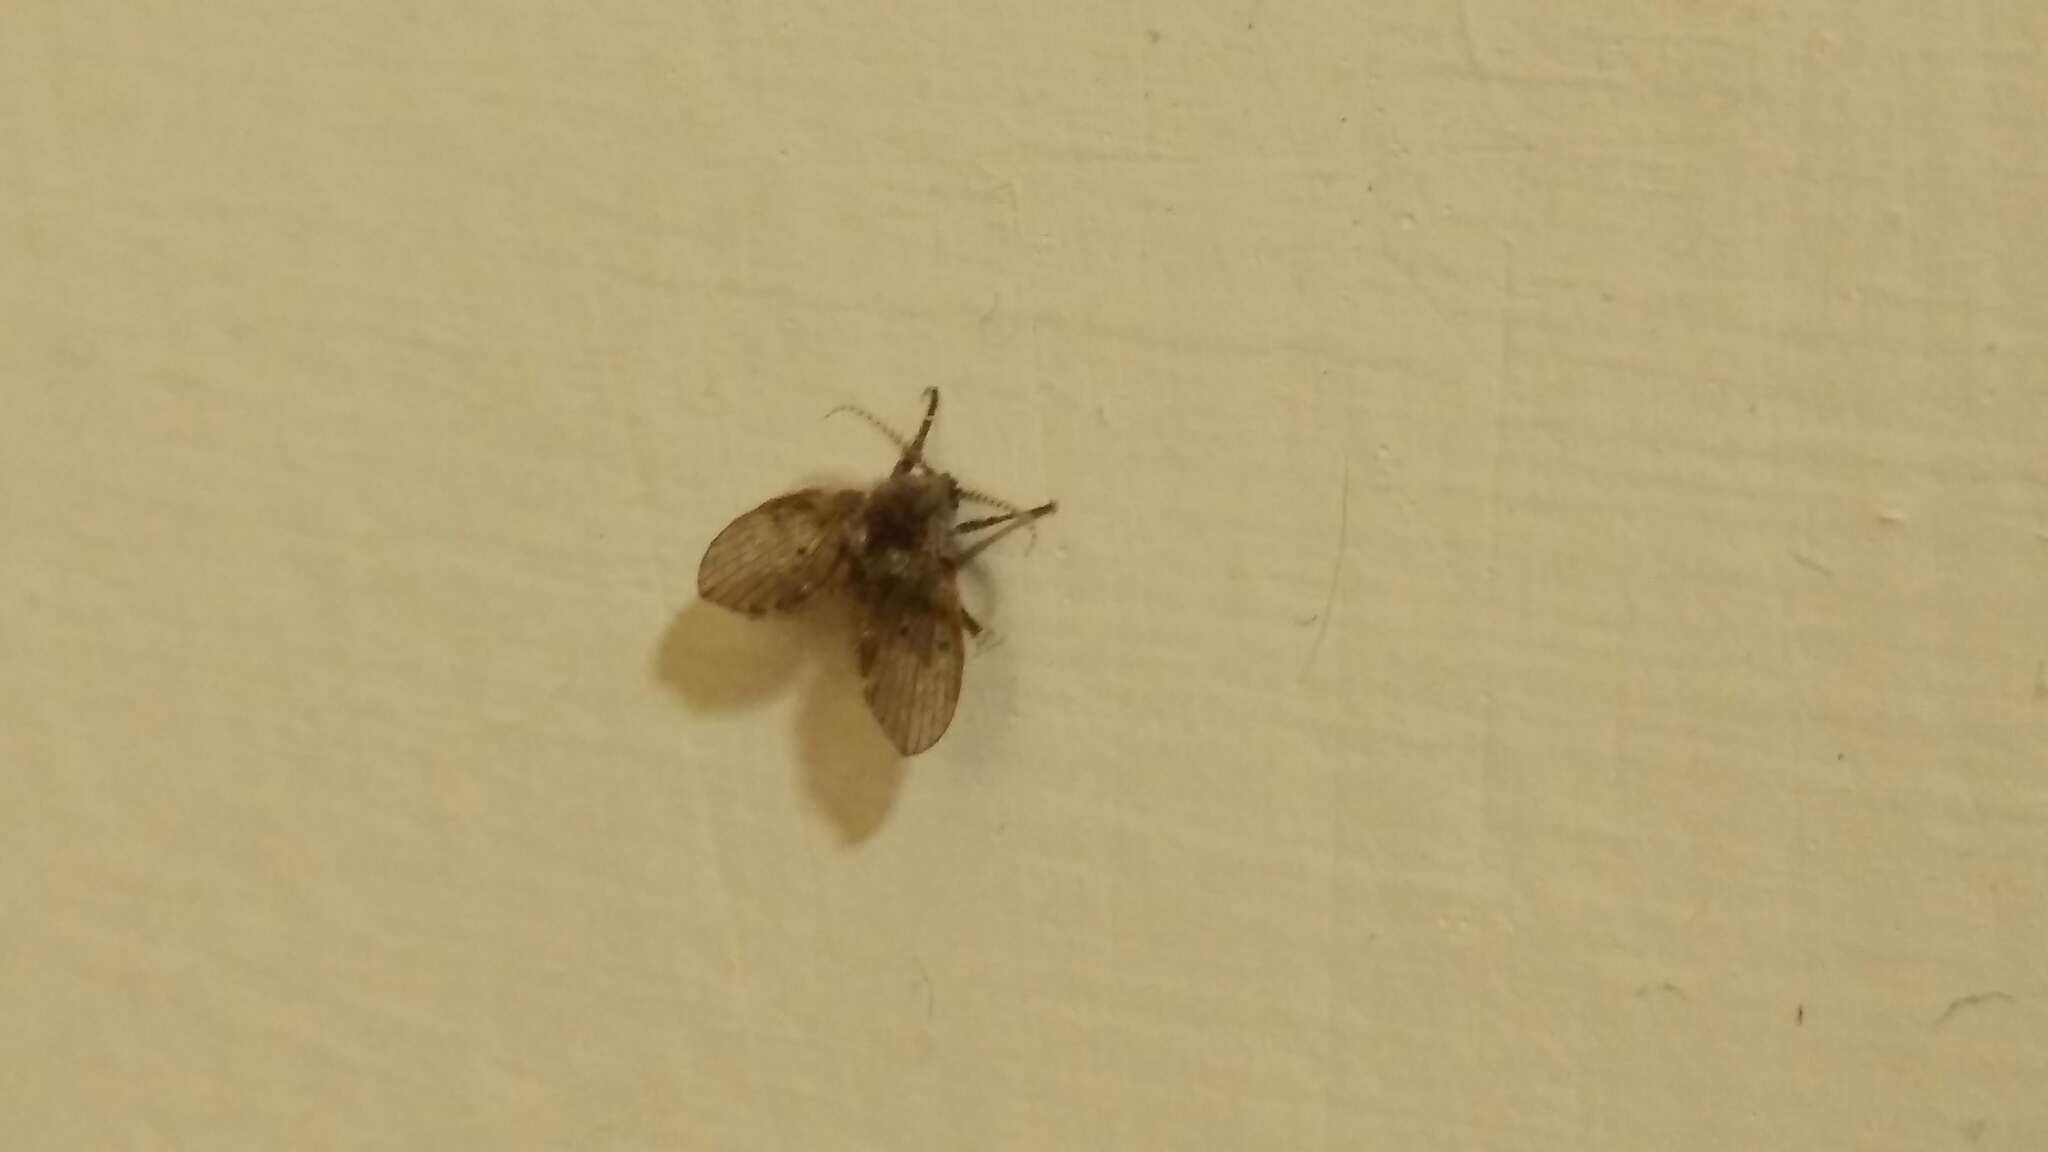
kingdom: Animalia
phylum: Arthropoda
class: Insecta
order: Diptera
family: Psychodidae
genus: Clogmia
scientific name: Clogmia albipunctatus
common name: White-spotted moth fly
